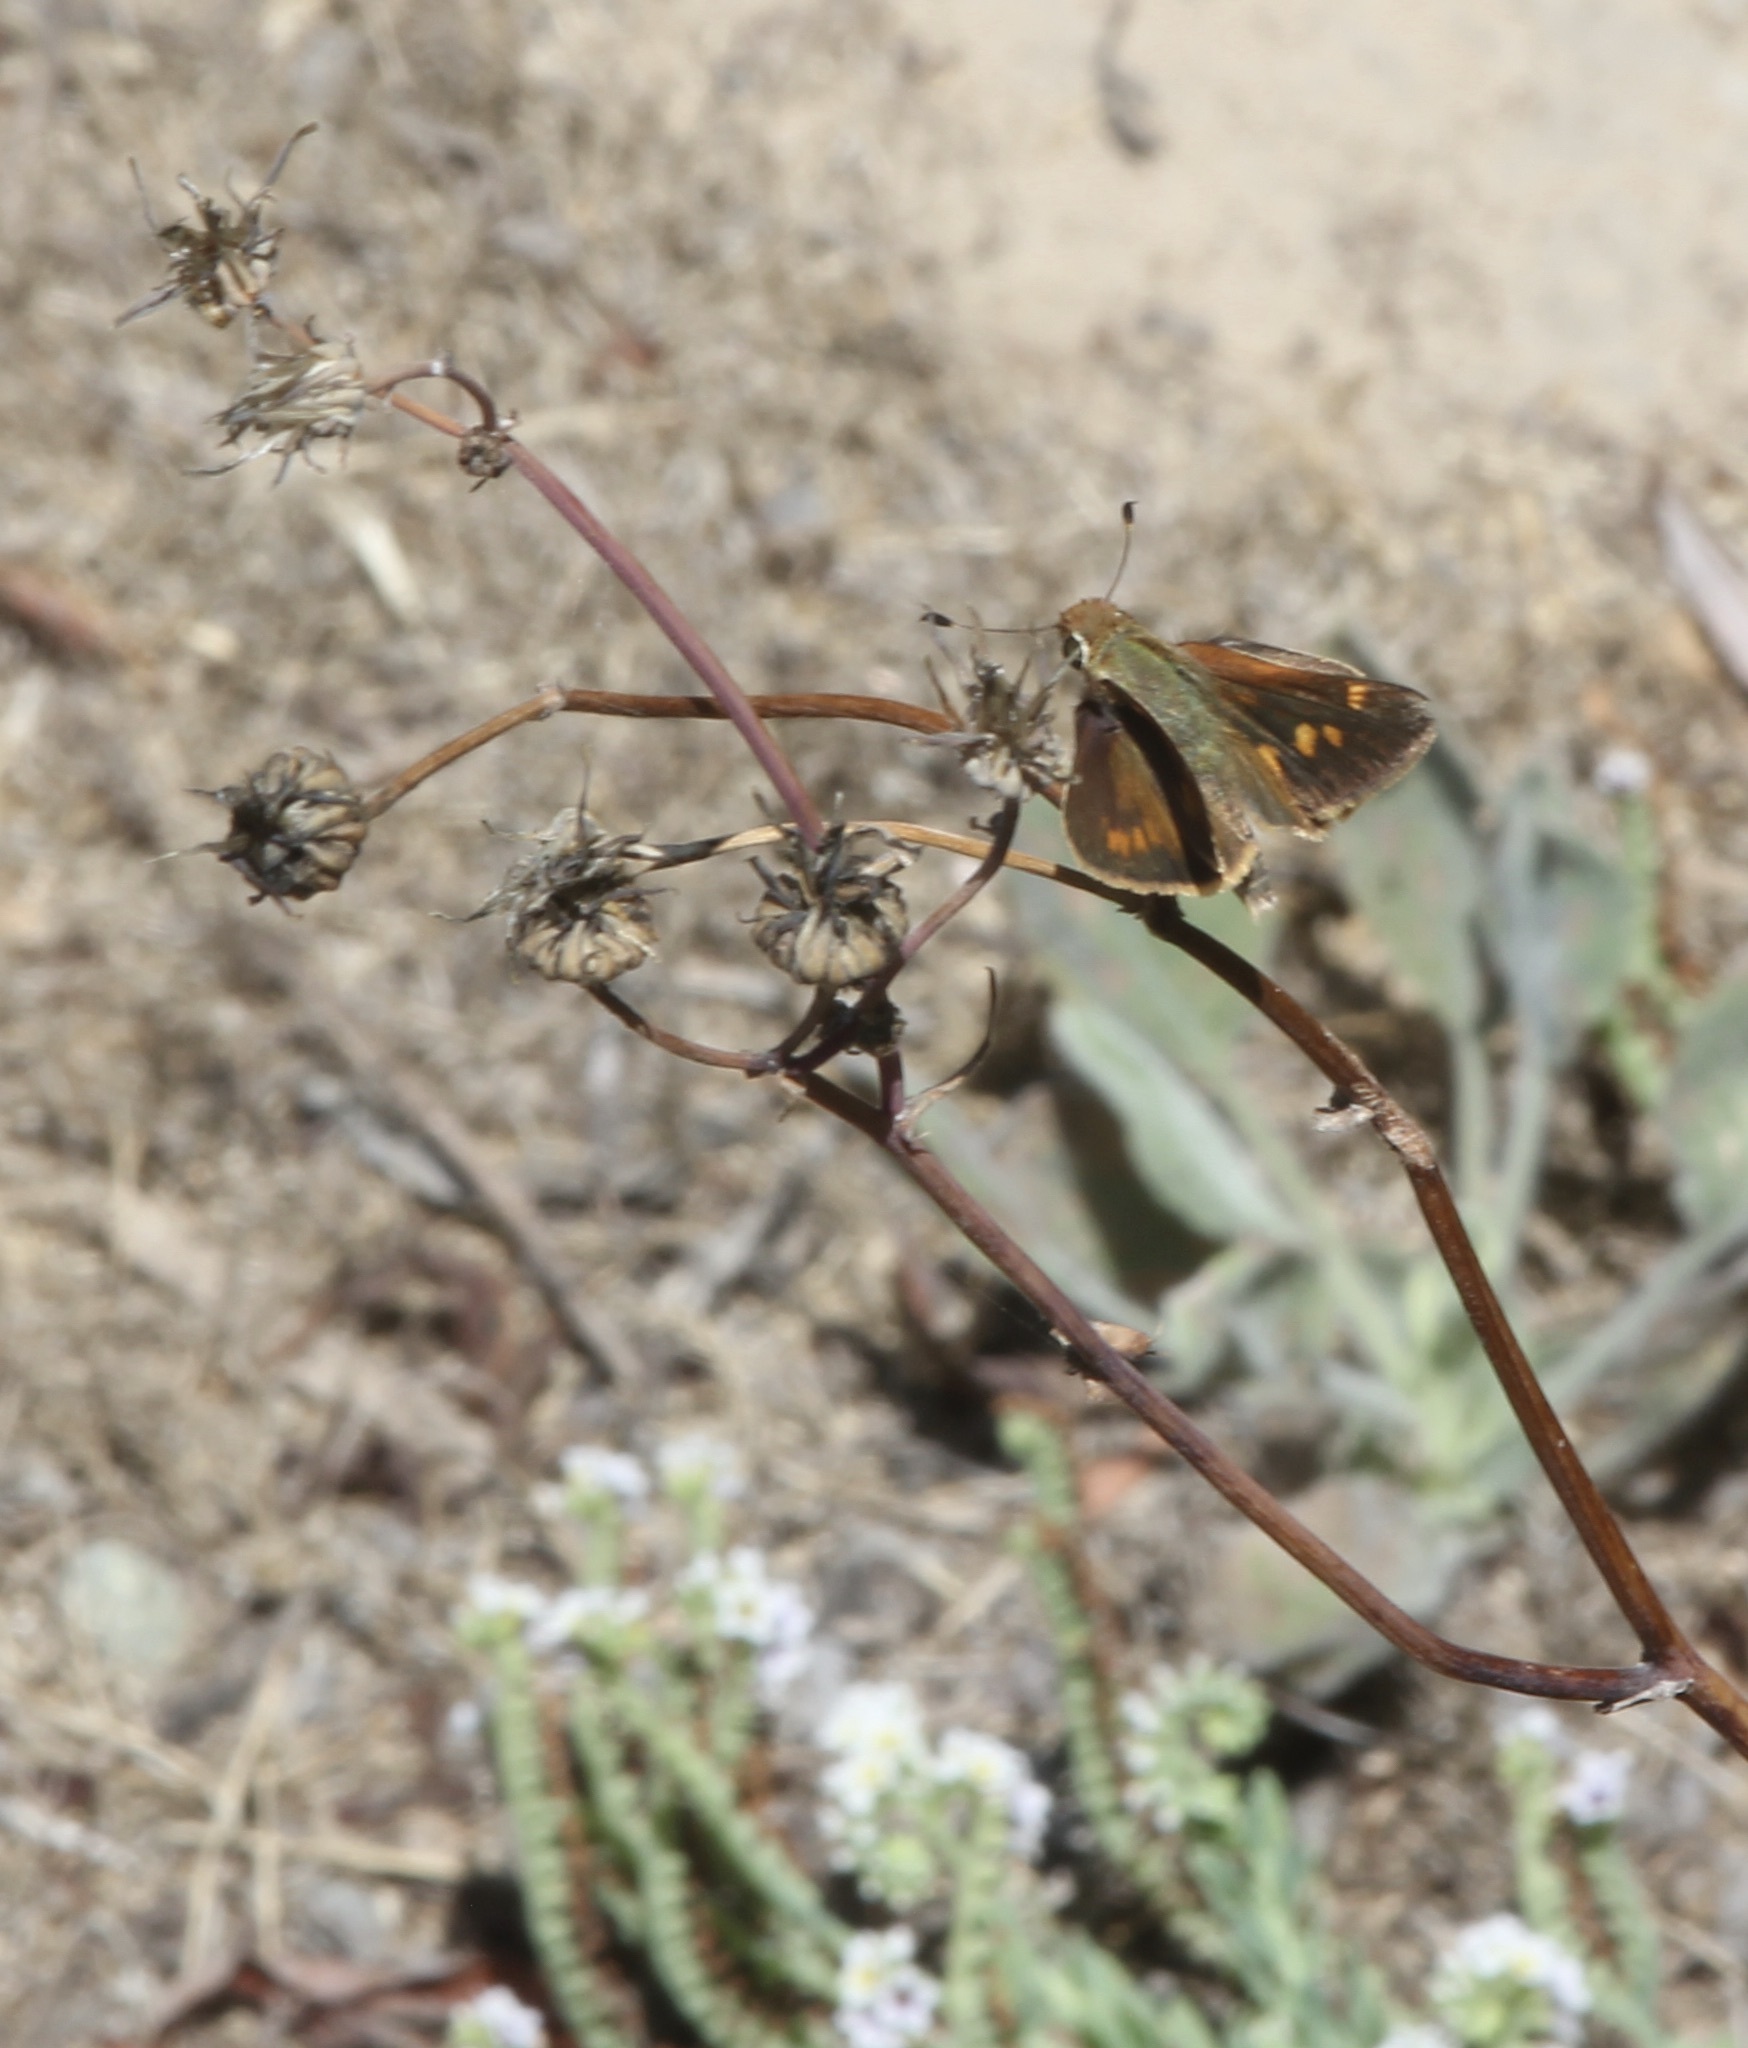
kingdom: Animalia
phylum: Arthropoda
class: Insecta
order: Lepidoptera
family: Hesperiidae
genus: Lon
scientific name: Lon melane
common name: Umber skipper
